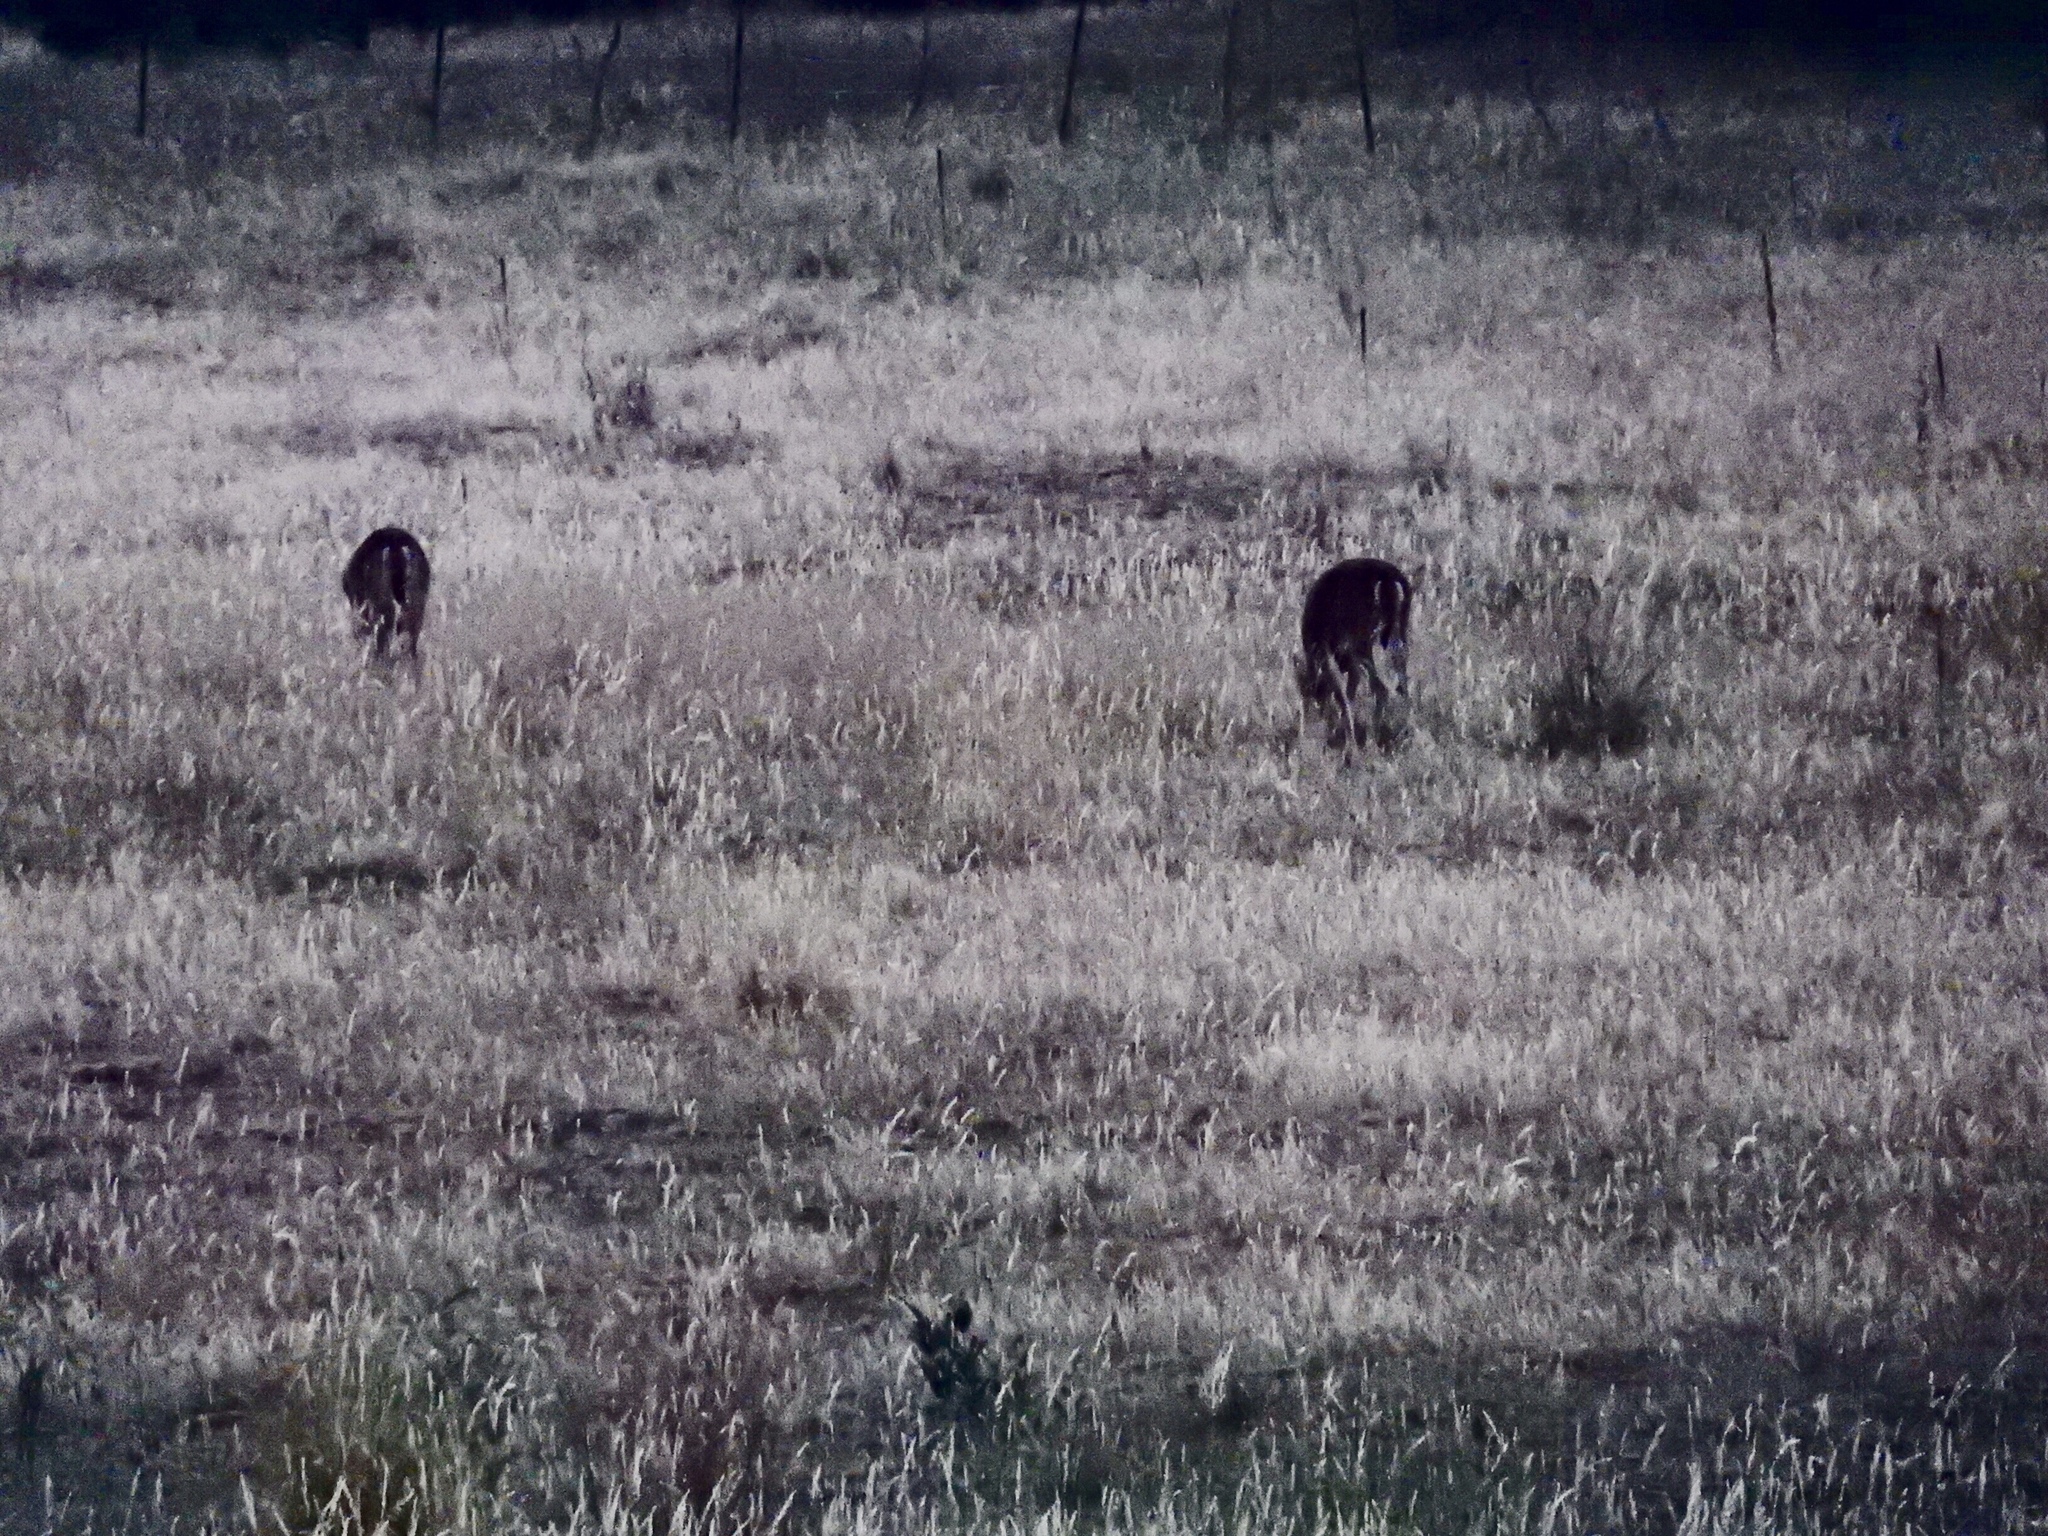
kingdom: Animalia
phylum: Chordata
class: Mammalia
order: Artiodactyla
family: Cervidae
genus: Odocoileus
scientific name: Odocoileus virginianus
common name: White-tailed deer
